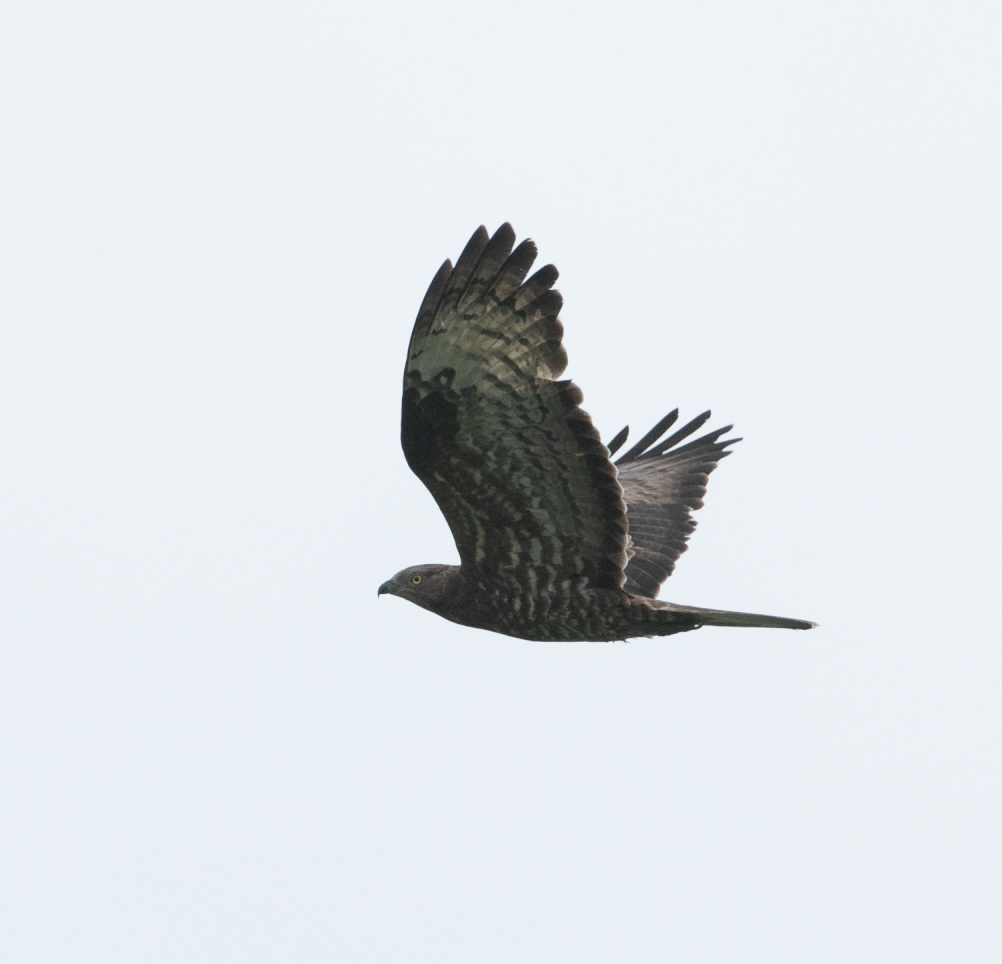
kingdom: Animalia
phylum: Chordata
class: Aves
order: Accipitriformes
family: Accipitridae
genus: Pernis
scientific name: Pernis apivorus
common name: European honey buzzard
